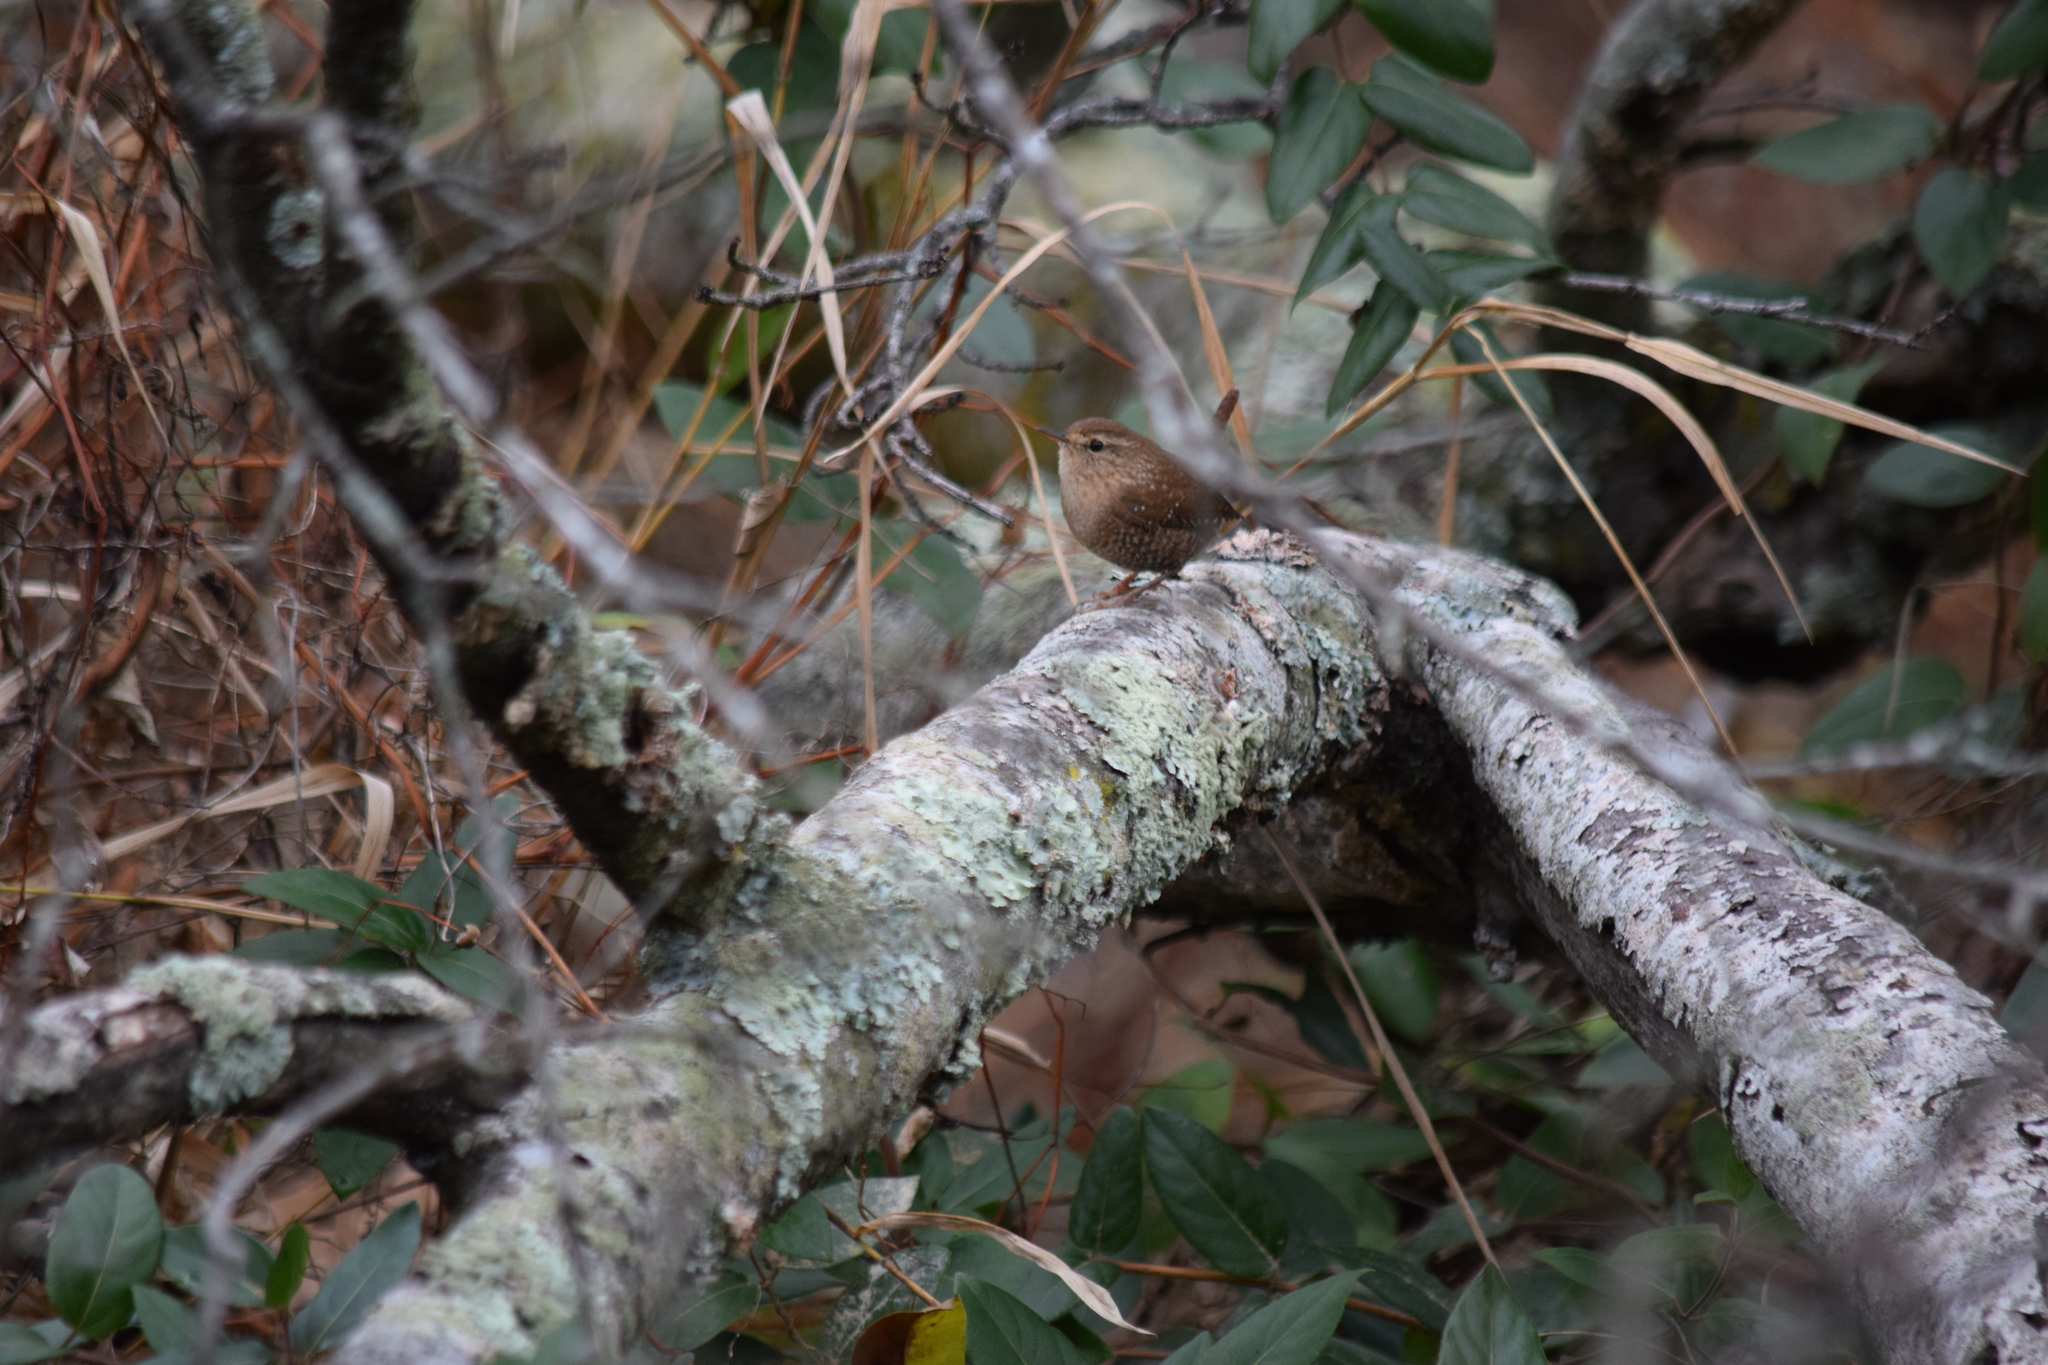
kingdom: Animalia
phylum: Chordata
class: Aves
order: Passeriformes
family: Troglodytidae
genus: Troglodytes
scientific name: Troglodytes hiemalis
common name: Winter wren
